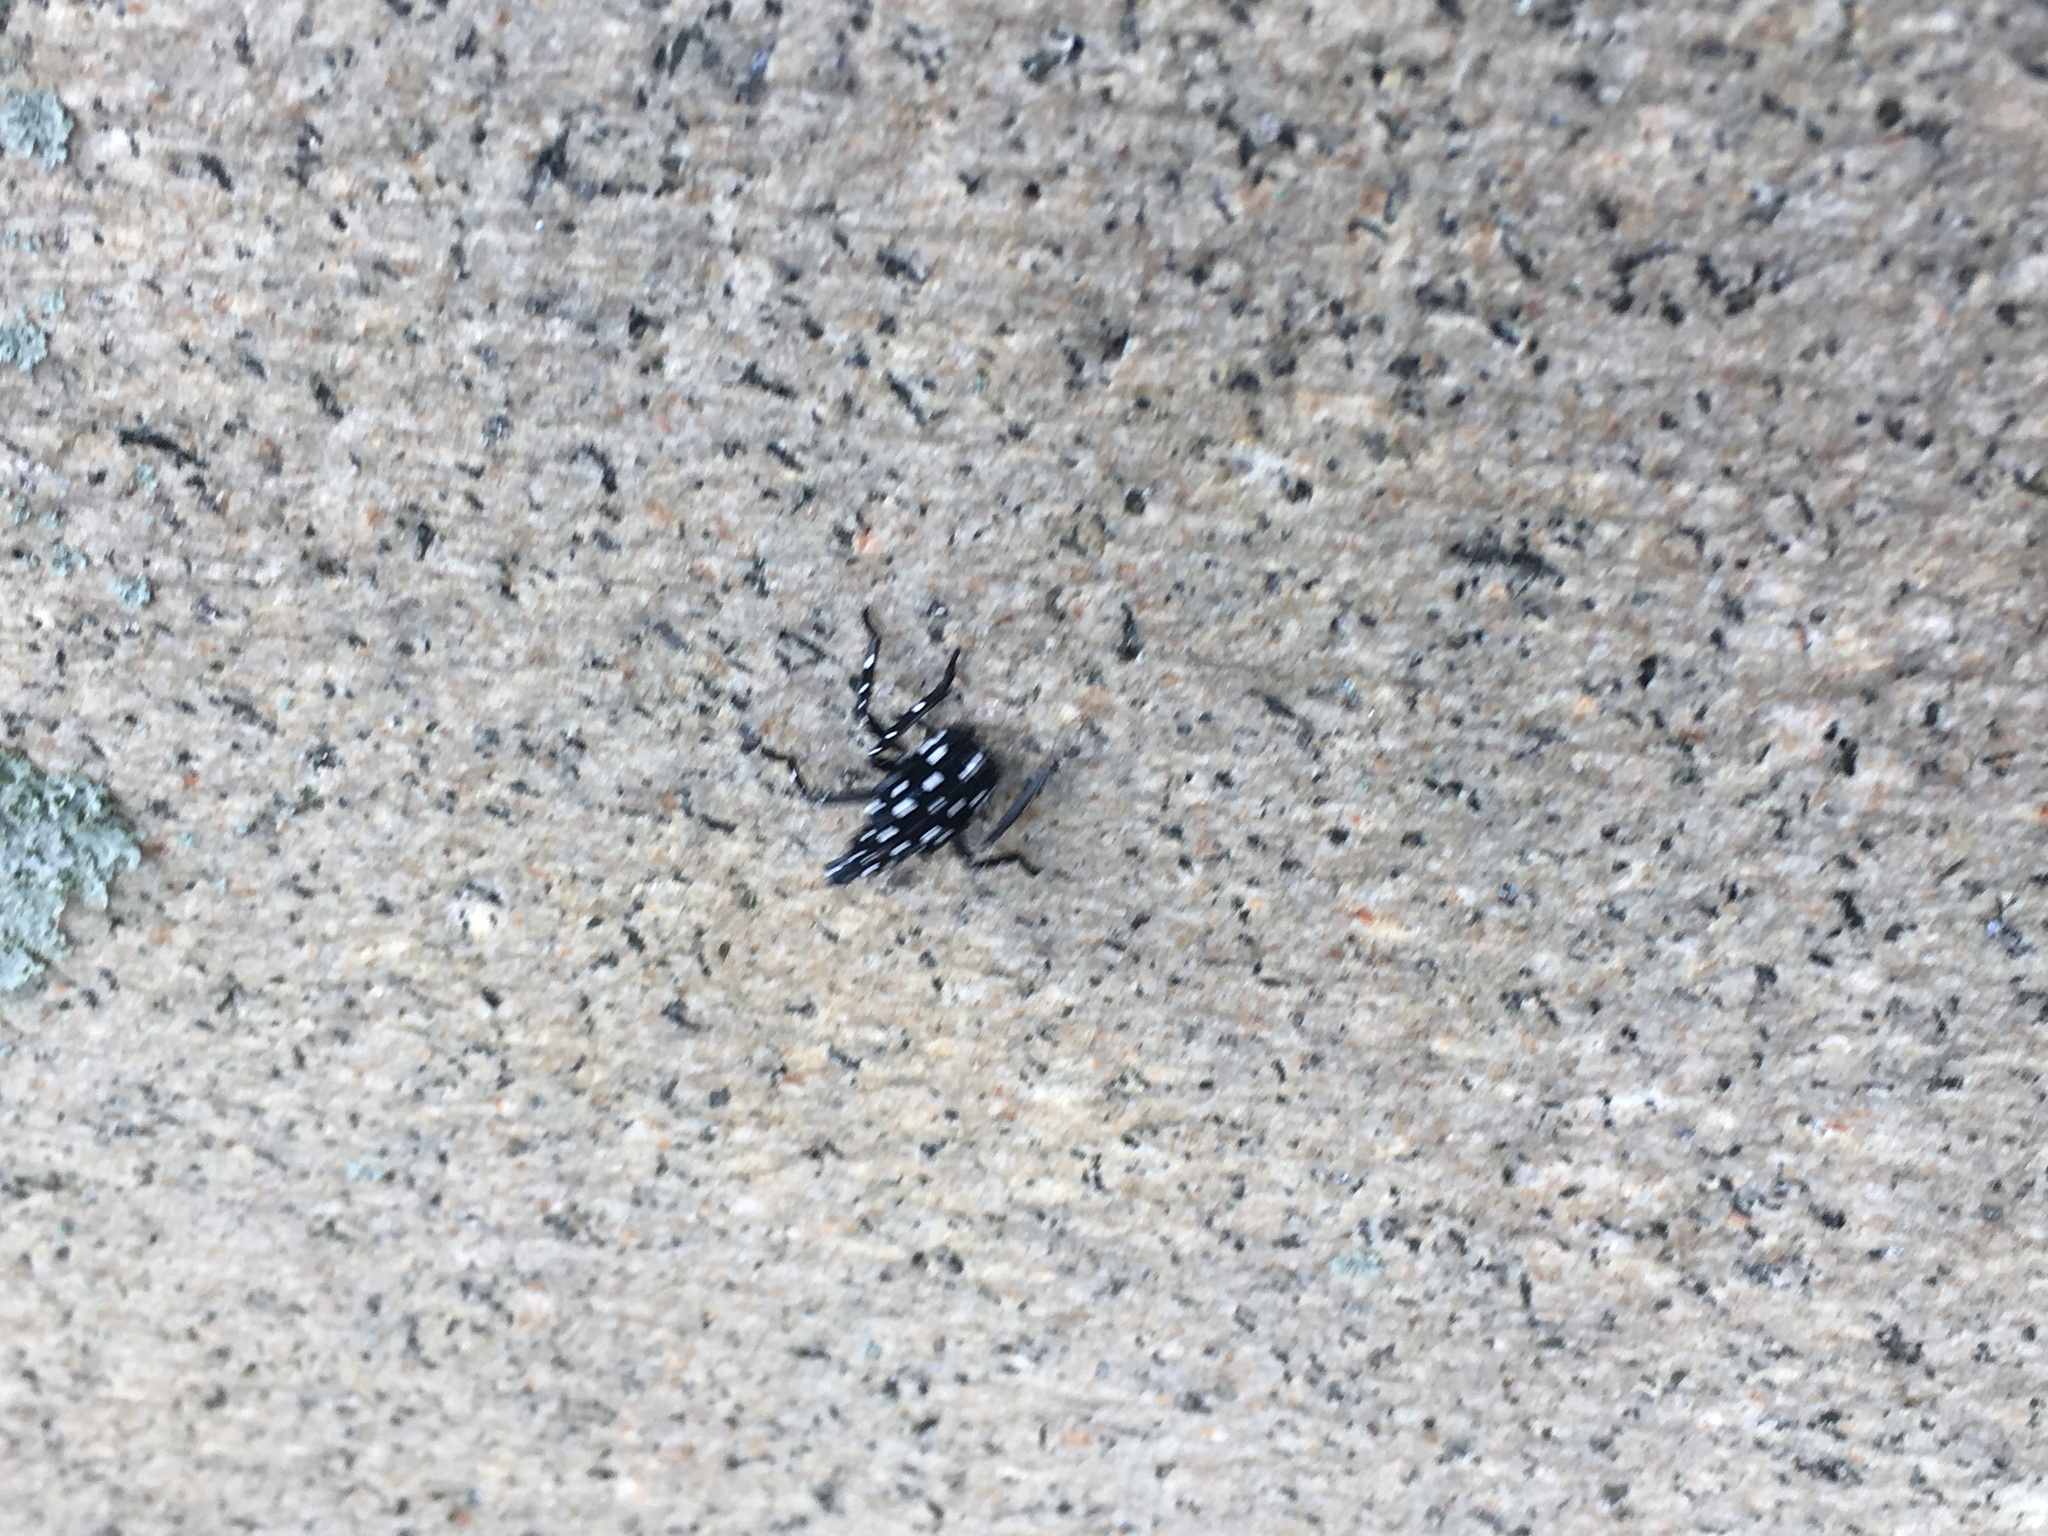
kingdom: Animalia
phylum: Arthropoda
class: Insecta
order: Hemiptera
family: Fulgoridae
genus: Lycorma
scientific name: Lycorma delicatula
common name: Spotted lanternfly
